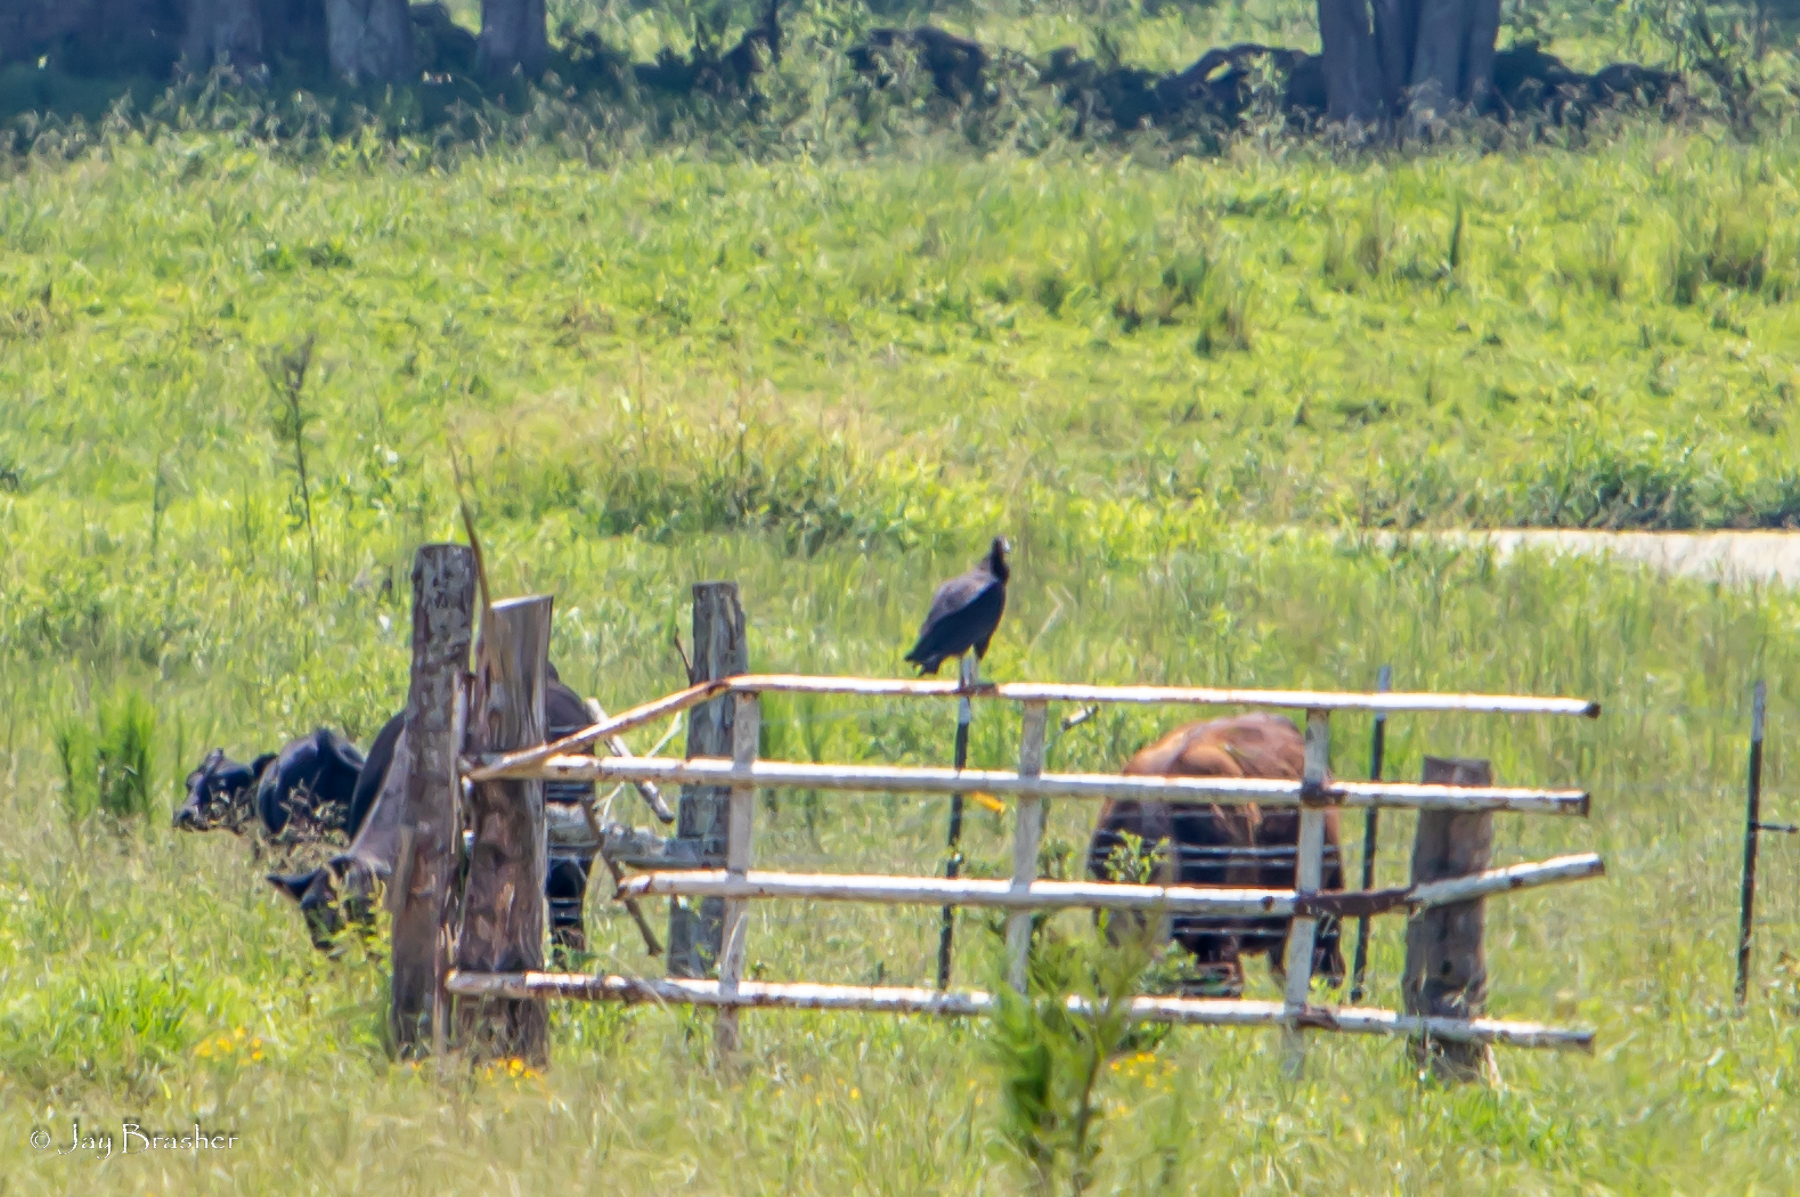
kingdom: Animalia
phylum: Chordata
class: Aves
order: Accipitriformes
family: Cathartidae
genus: Coragyps
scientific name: Coragyps atratus
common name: Black vulture
